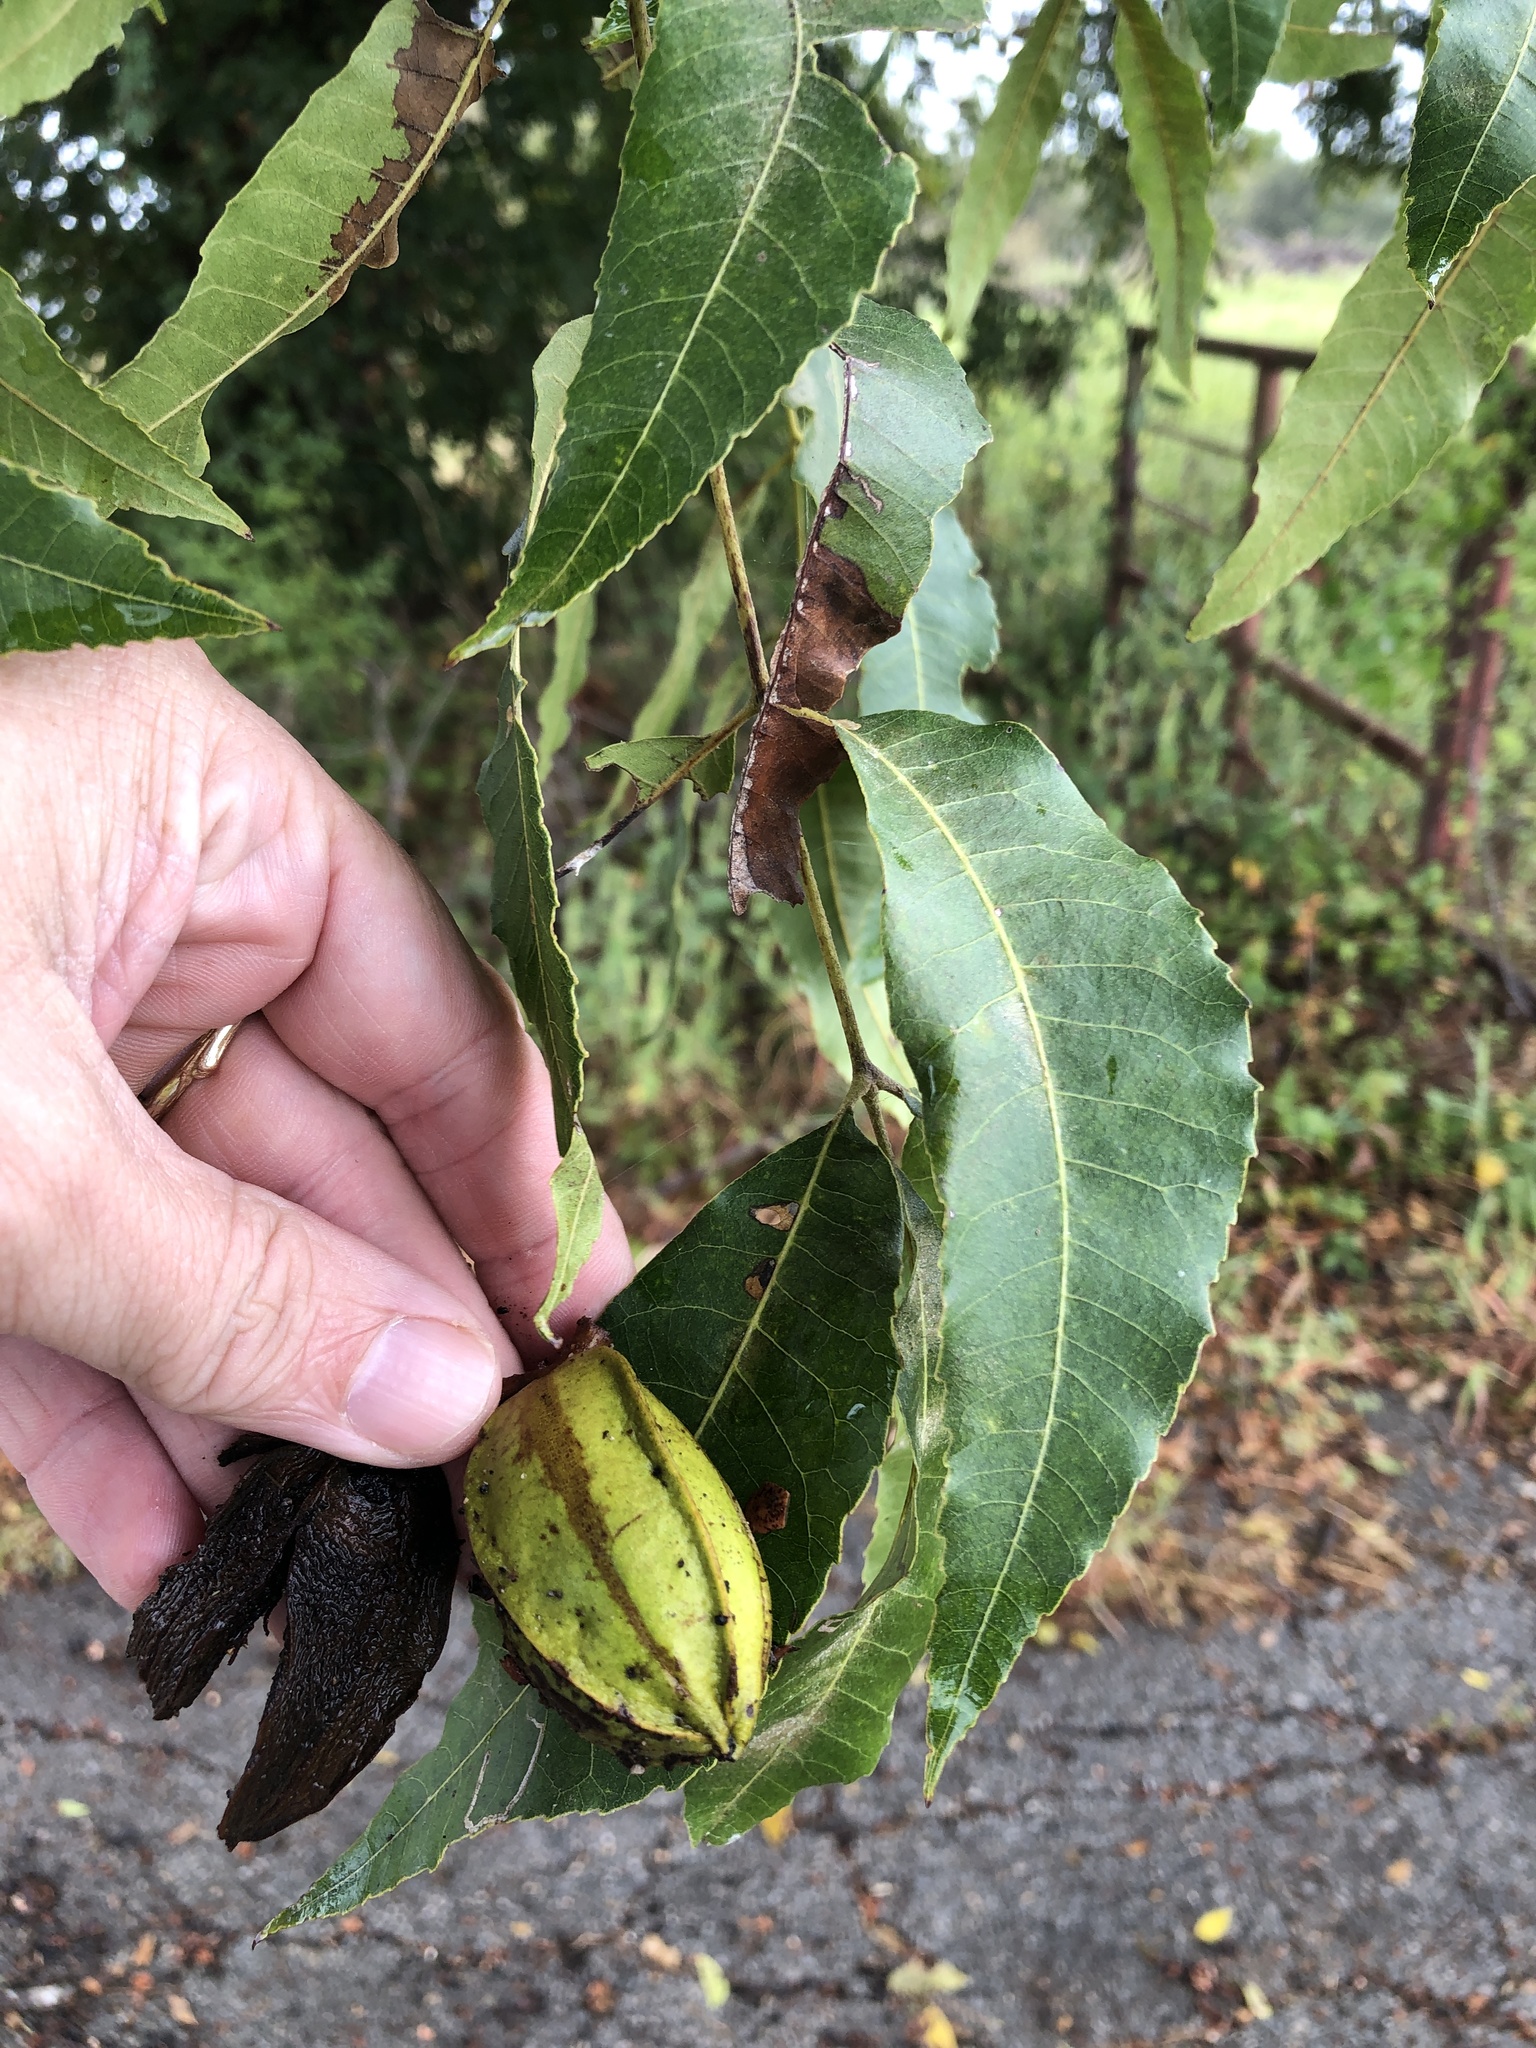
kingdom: Plantae
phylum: Tracheophyta
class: Magnoliopsida
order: Fagales
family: Juglandaceae
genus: Carya
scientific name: Carya illinoinensis
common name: Pecan
